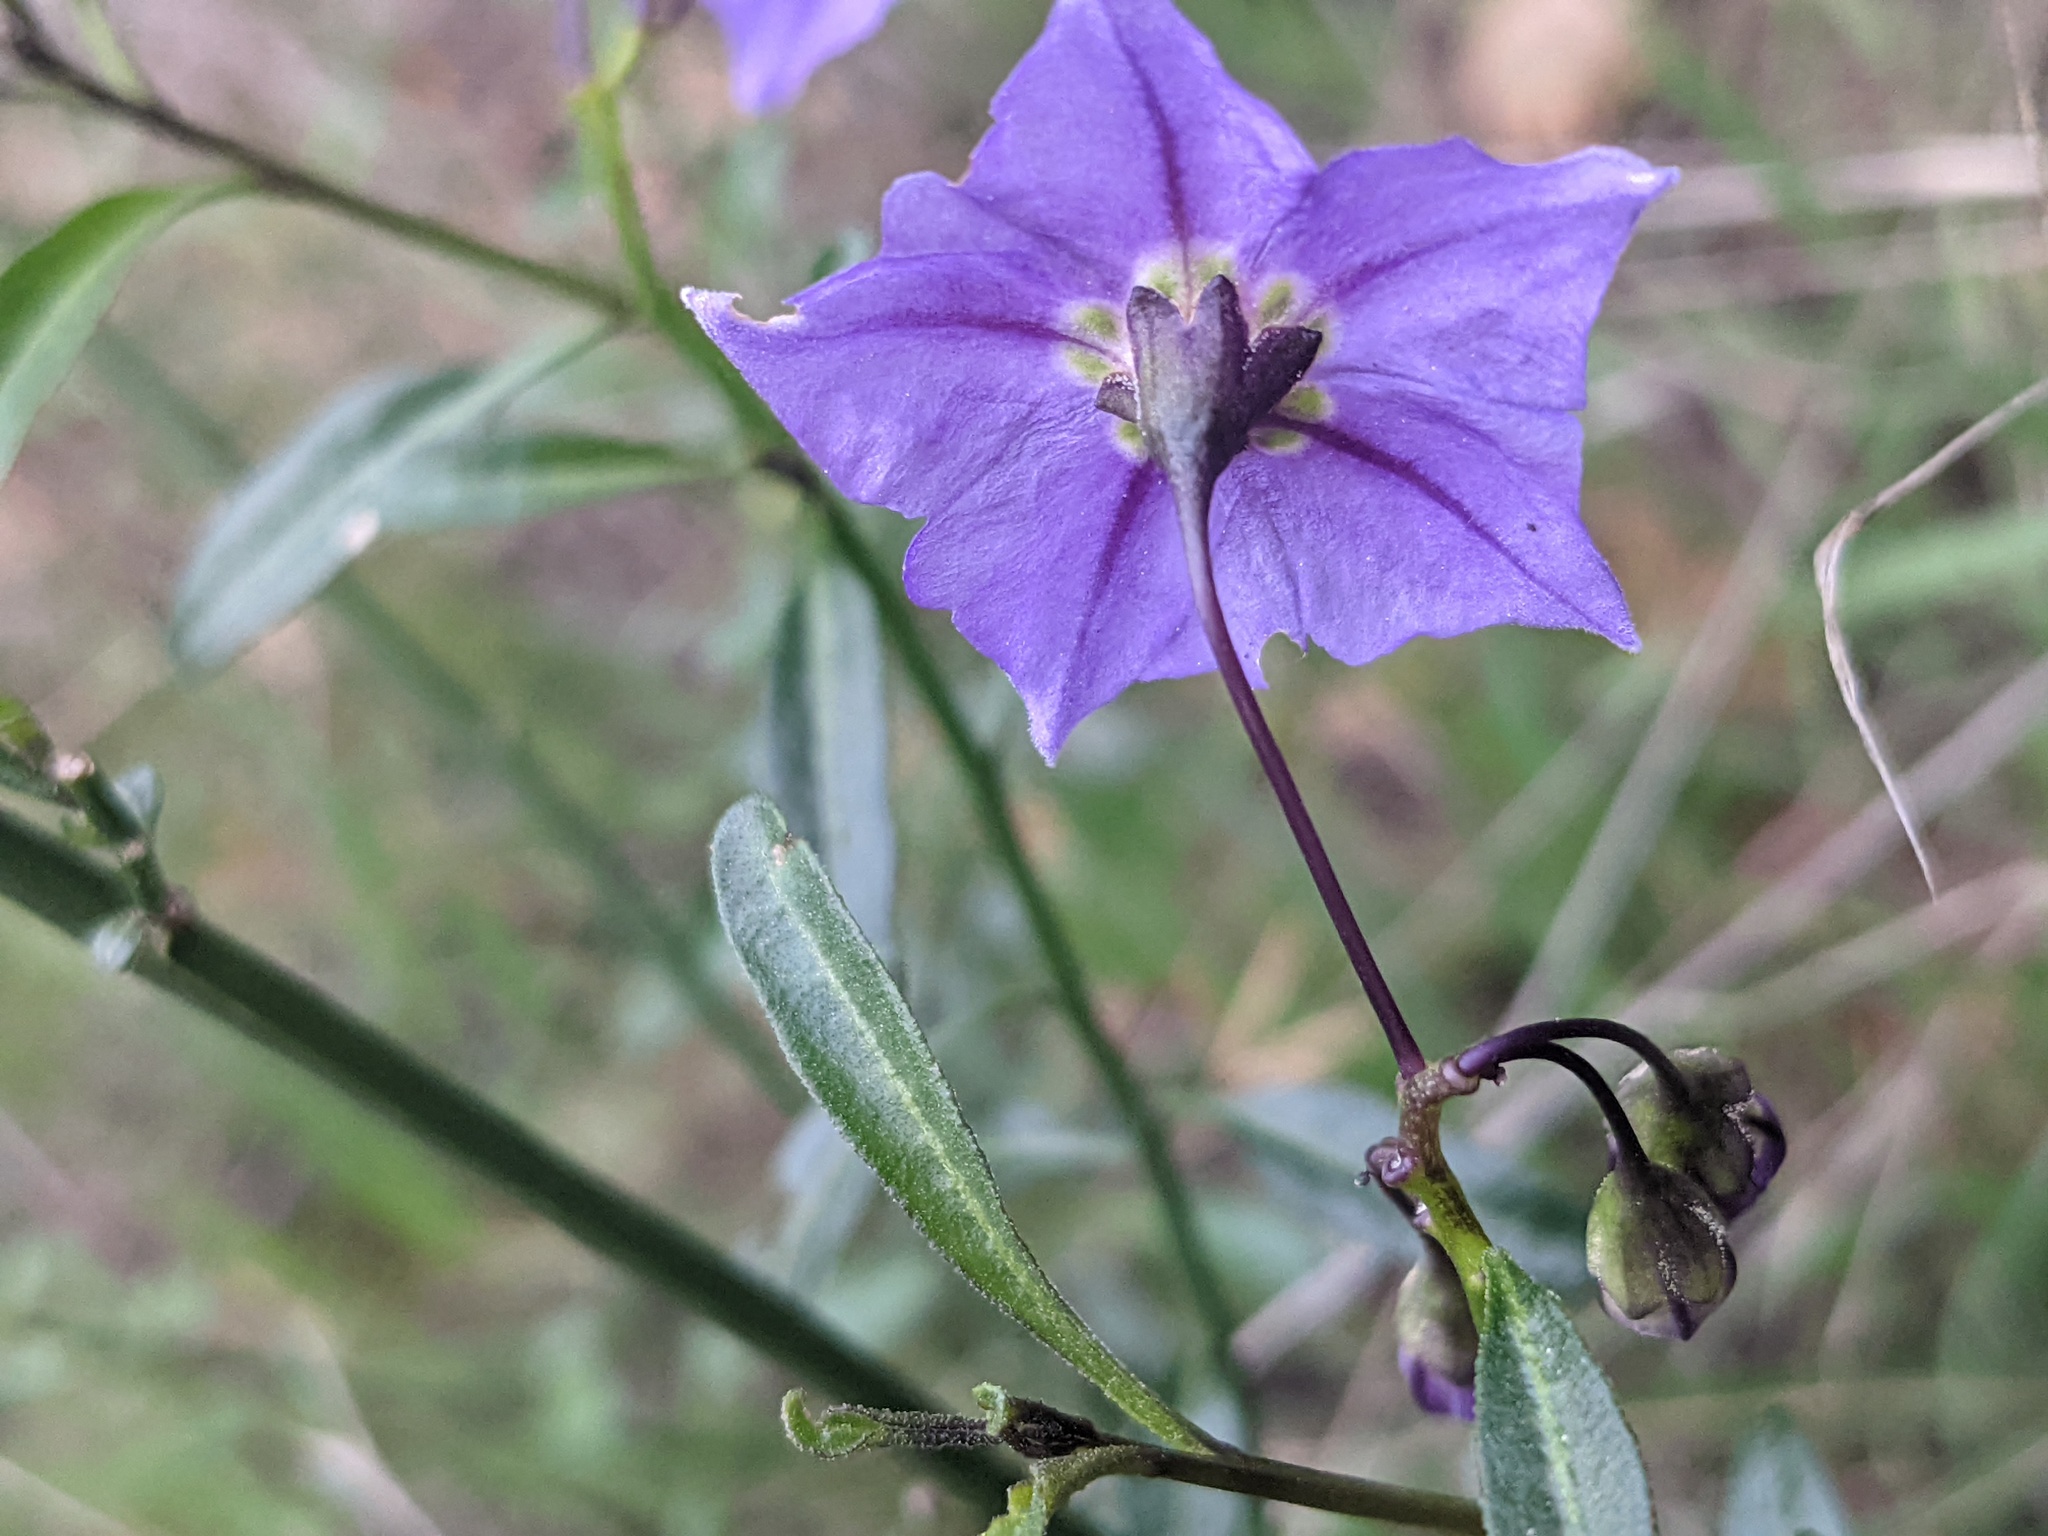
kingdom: Plantae
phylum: Tracheophyta
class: Magnoliopsida
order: Solanales
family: Solanaceae
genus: Solanum
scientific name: Solanum umbelliferum
